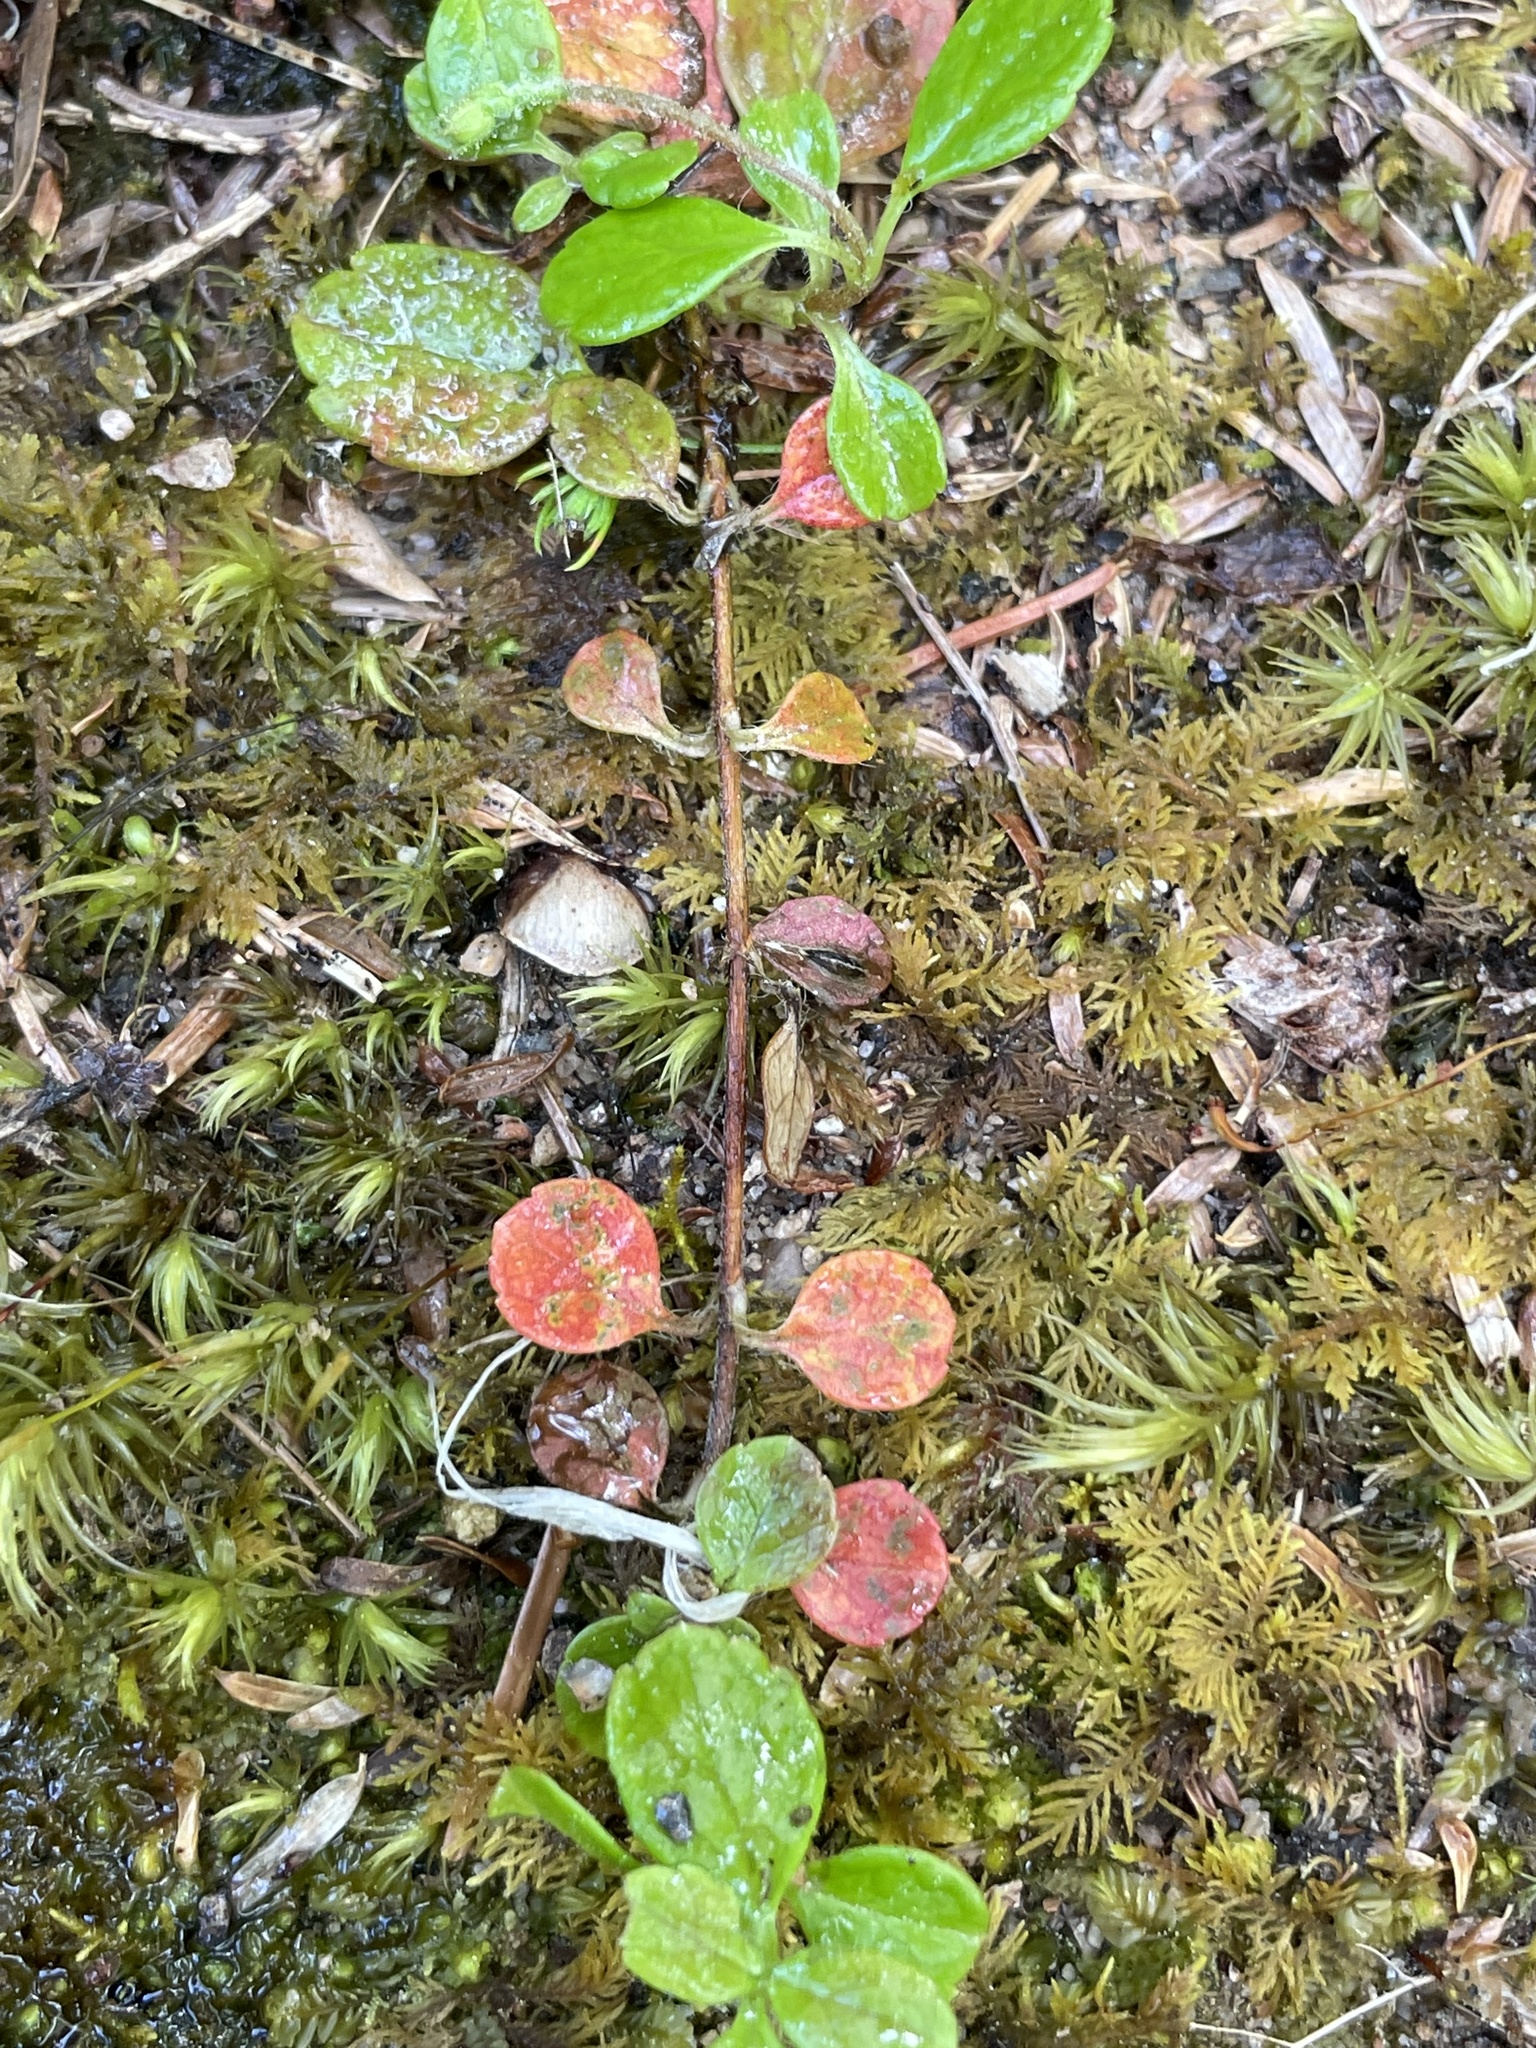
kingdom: Plantae
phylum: Tracheophyta
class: Magnoliopsida
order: Dipsacales
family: Caprifoliaceae
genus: Linnaea
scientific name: Linnaea borealis
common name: Twinflower
